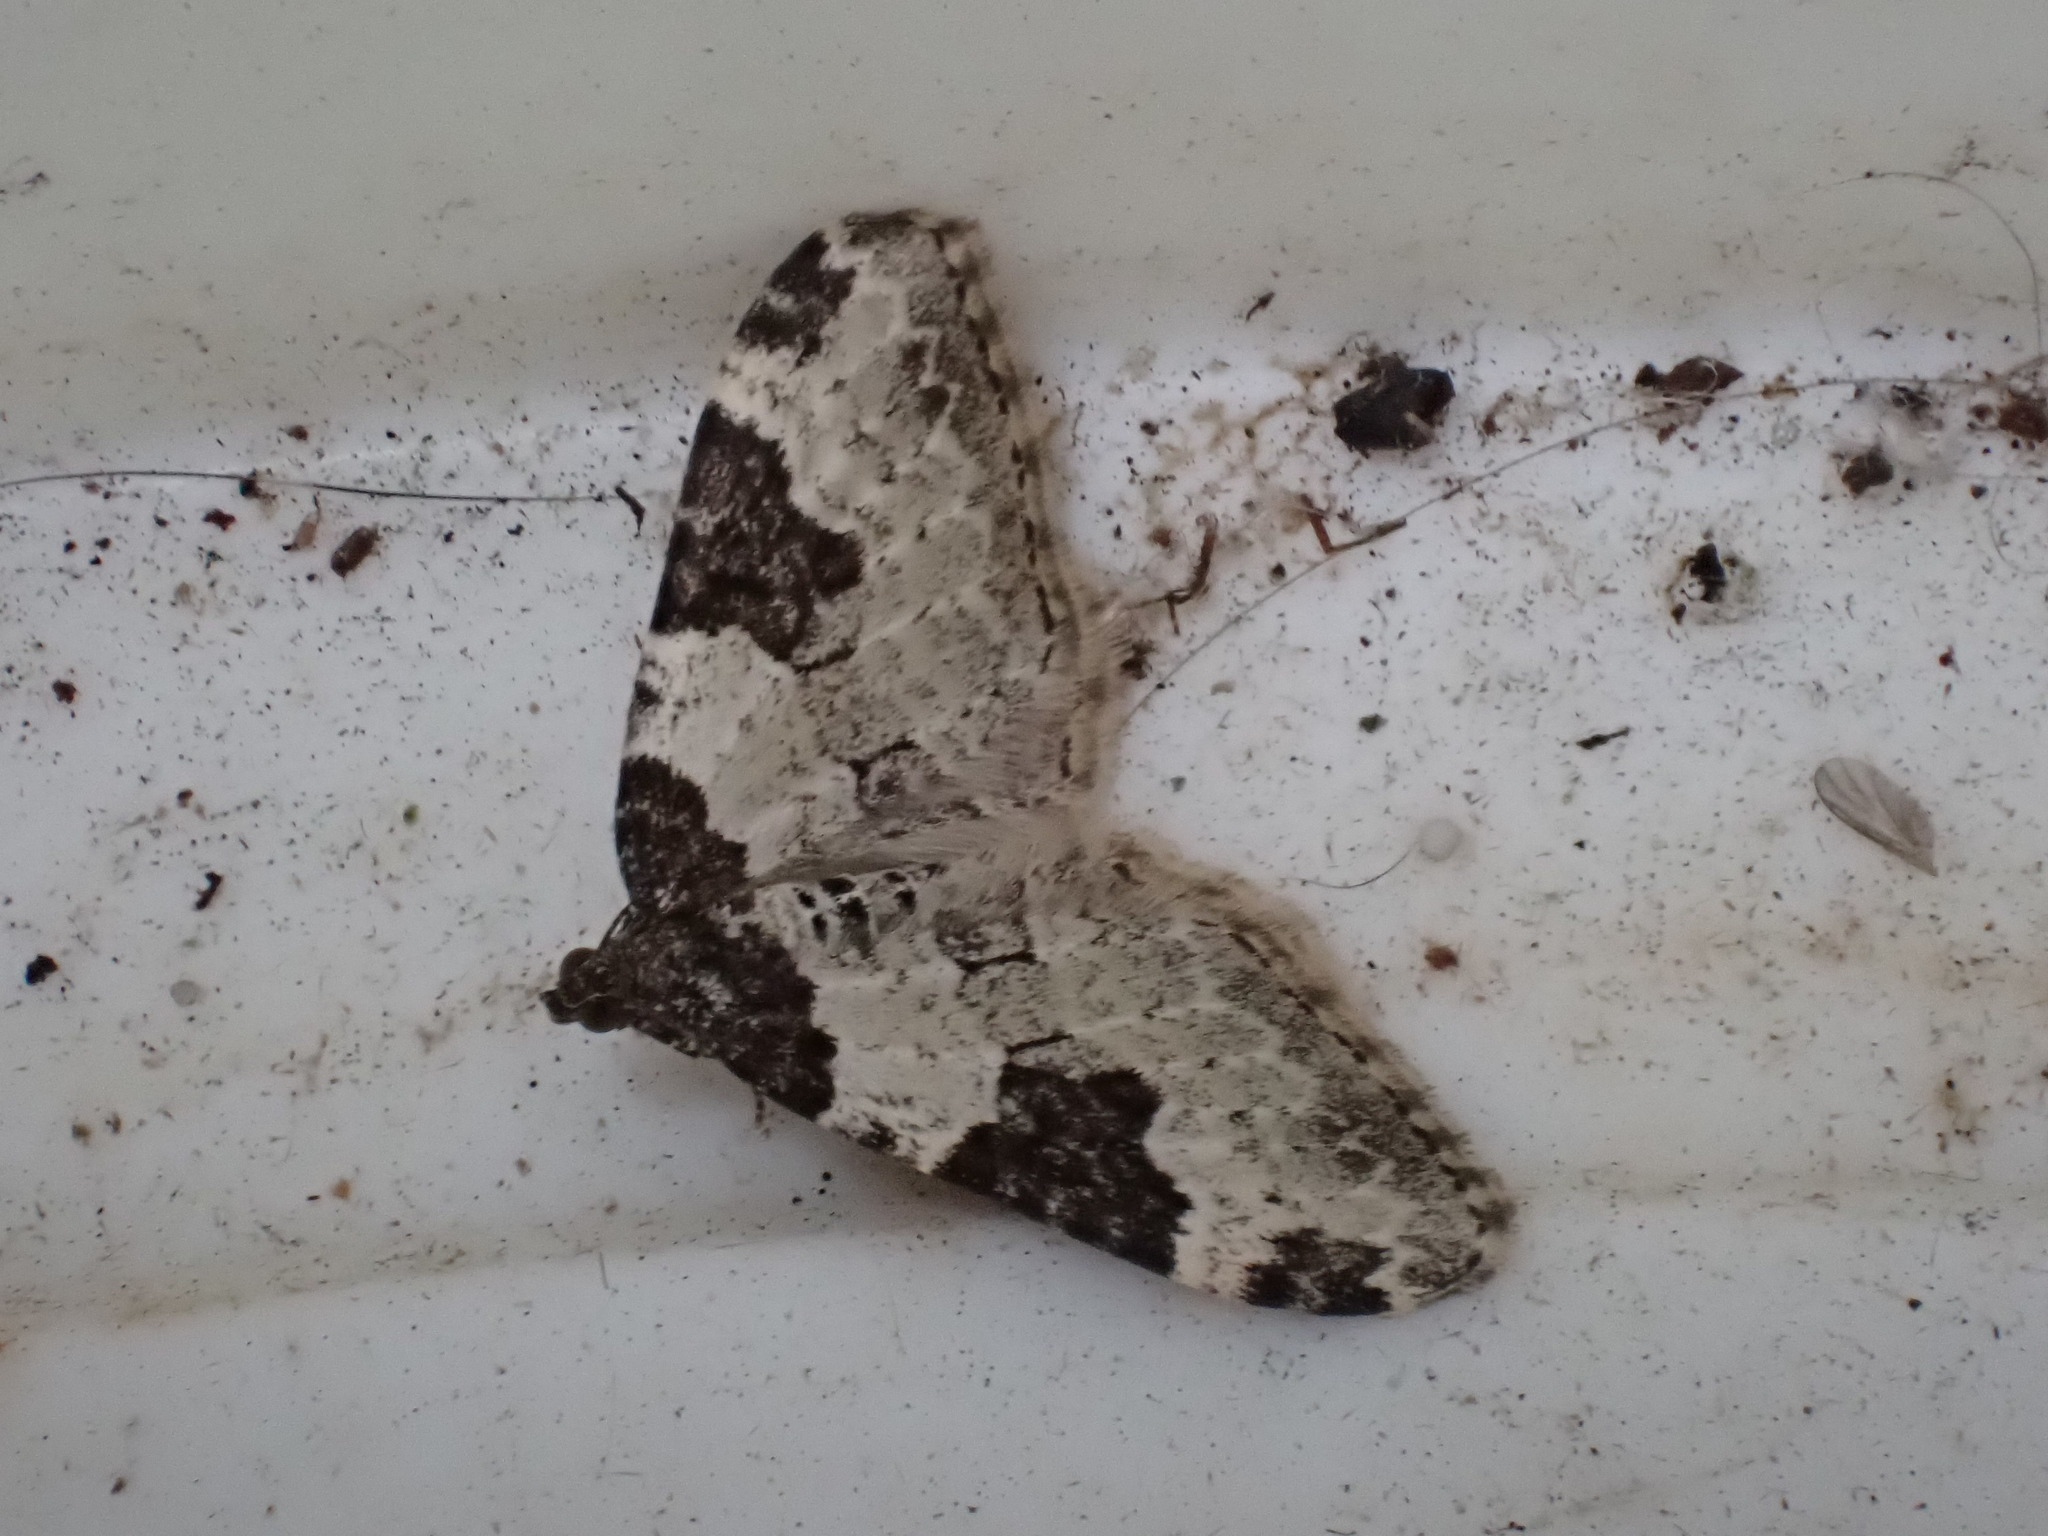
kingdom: Animalia
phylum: Arthropoda
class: Insecta
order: Lepidoptera
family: Geometridae
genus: Xanthorhoe
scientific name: Xanthorhoe fluctuata
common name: Garden carpet
